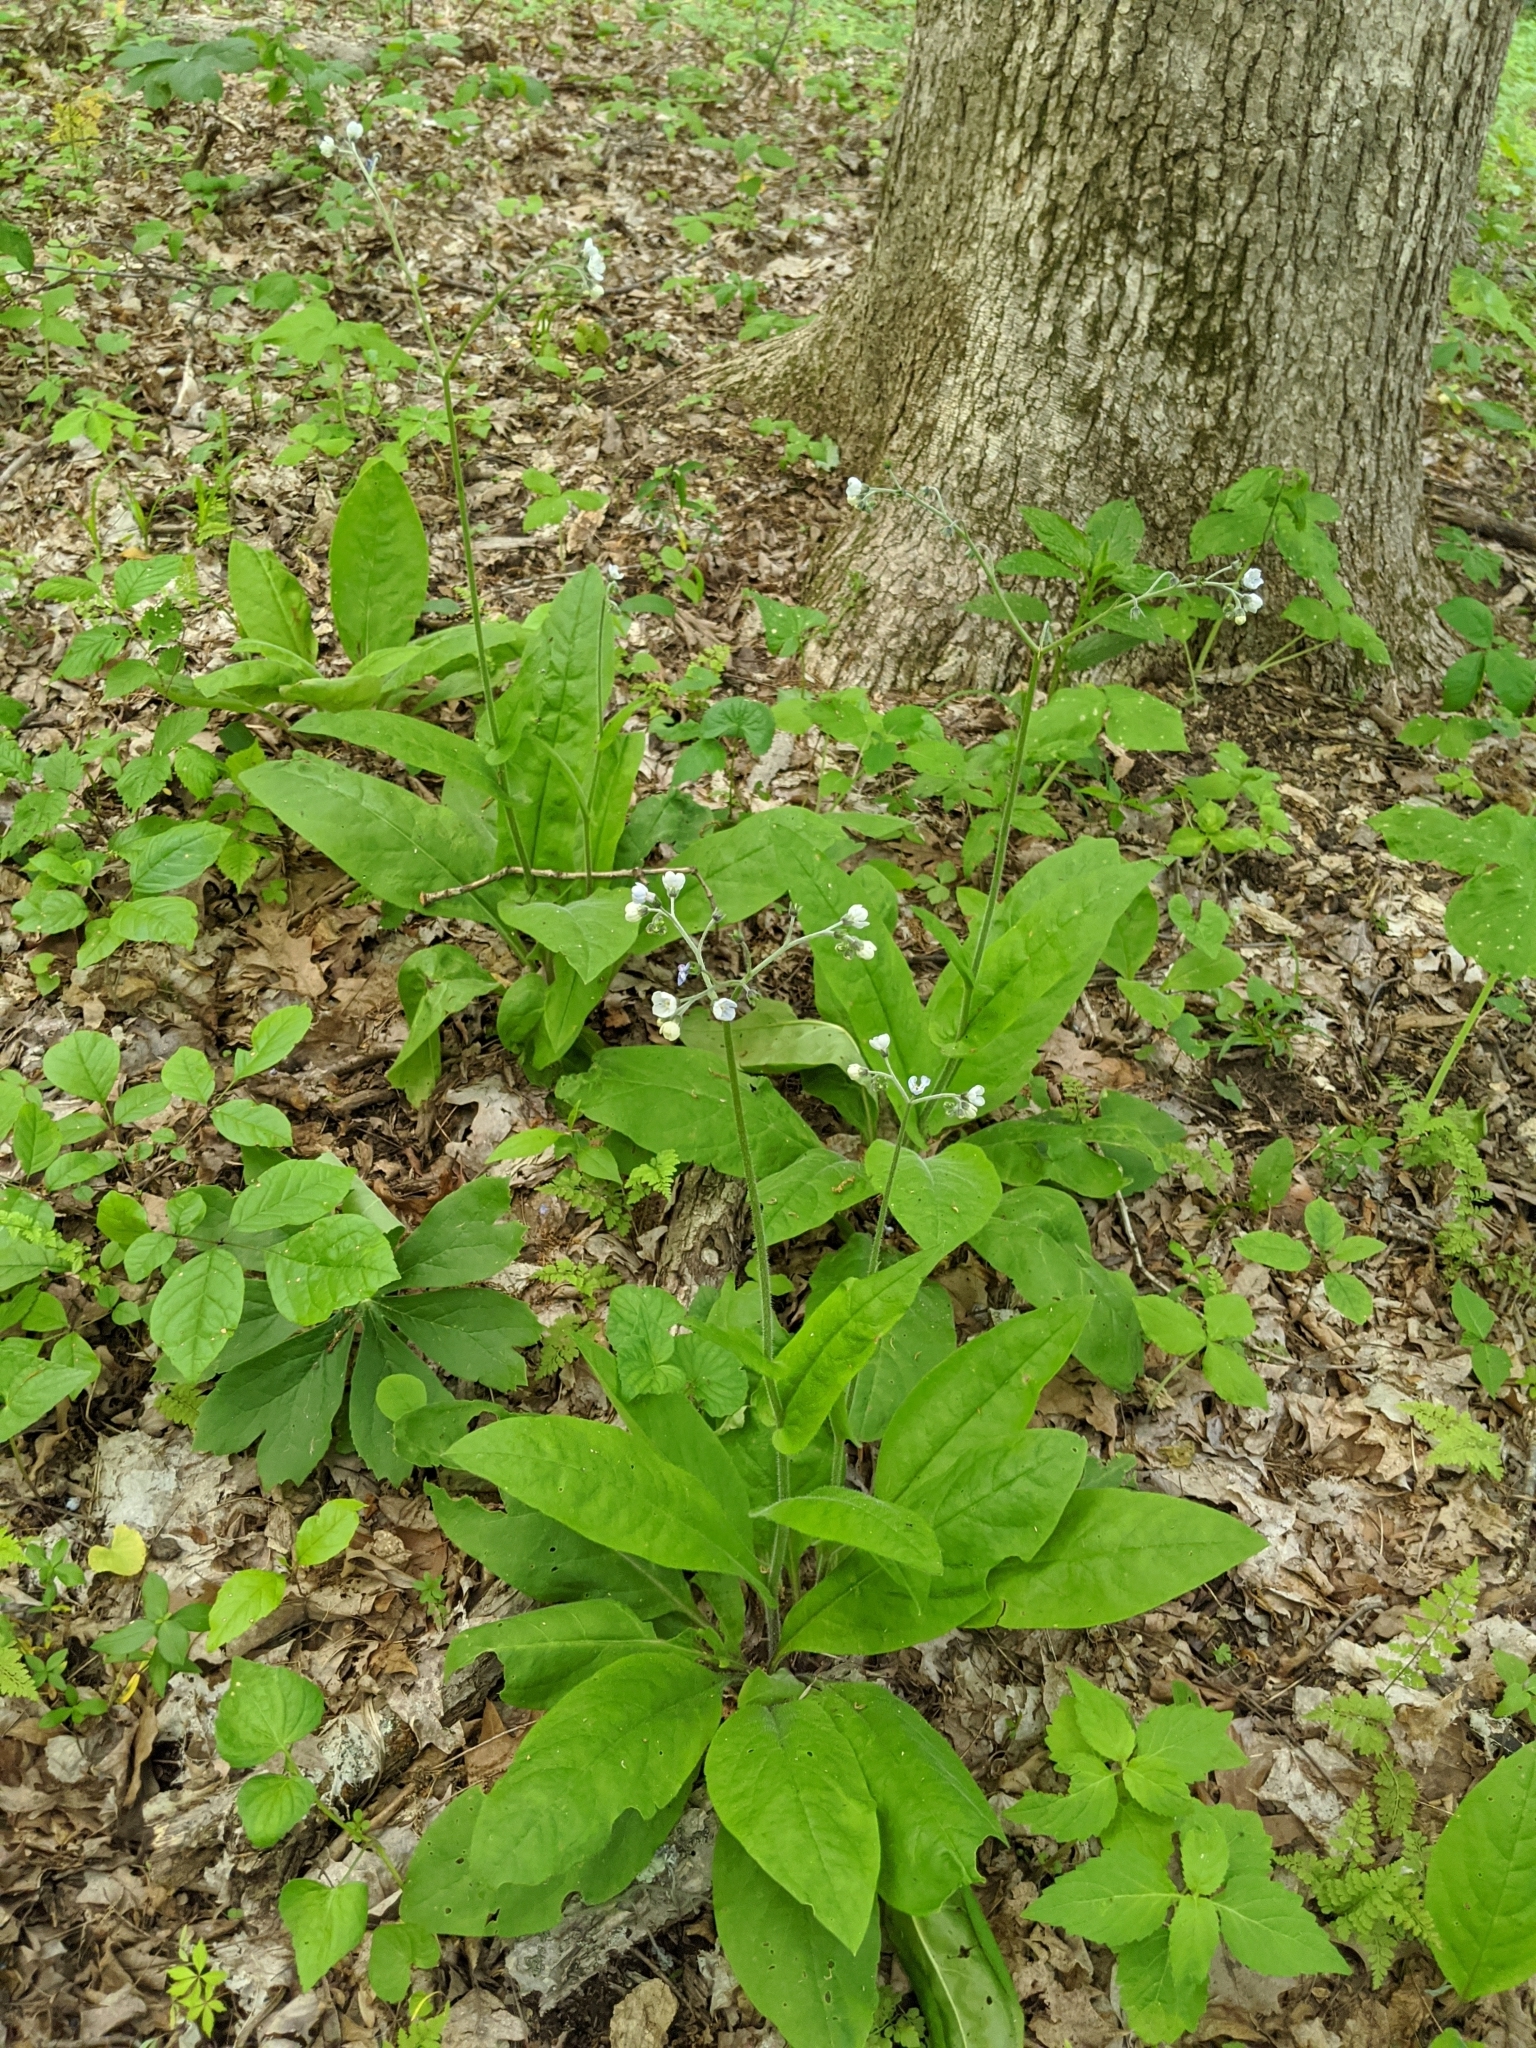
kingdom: Plantae
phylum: Tracheophyta
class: Magnoliopsida
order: Boraginales
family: Boraginaceae
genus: Andersonglossum
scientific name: Andersonglossum virginianum
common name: Wild comfrey
